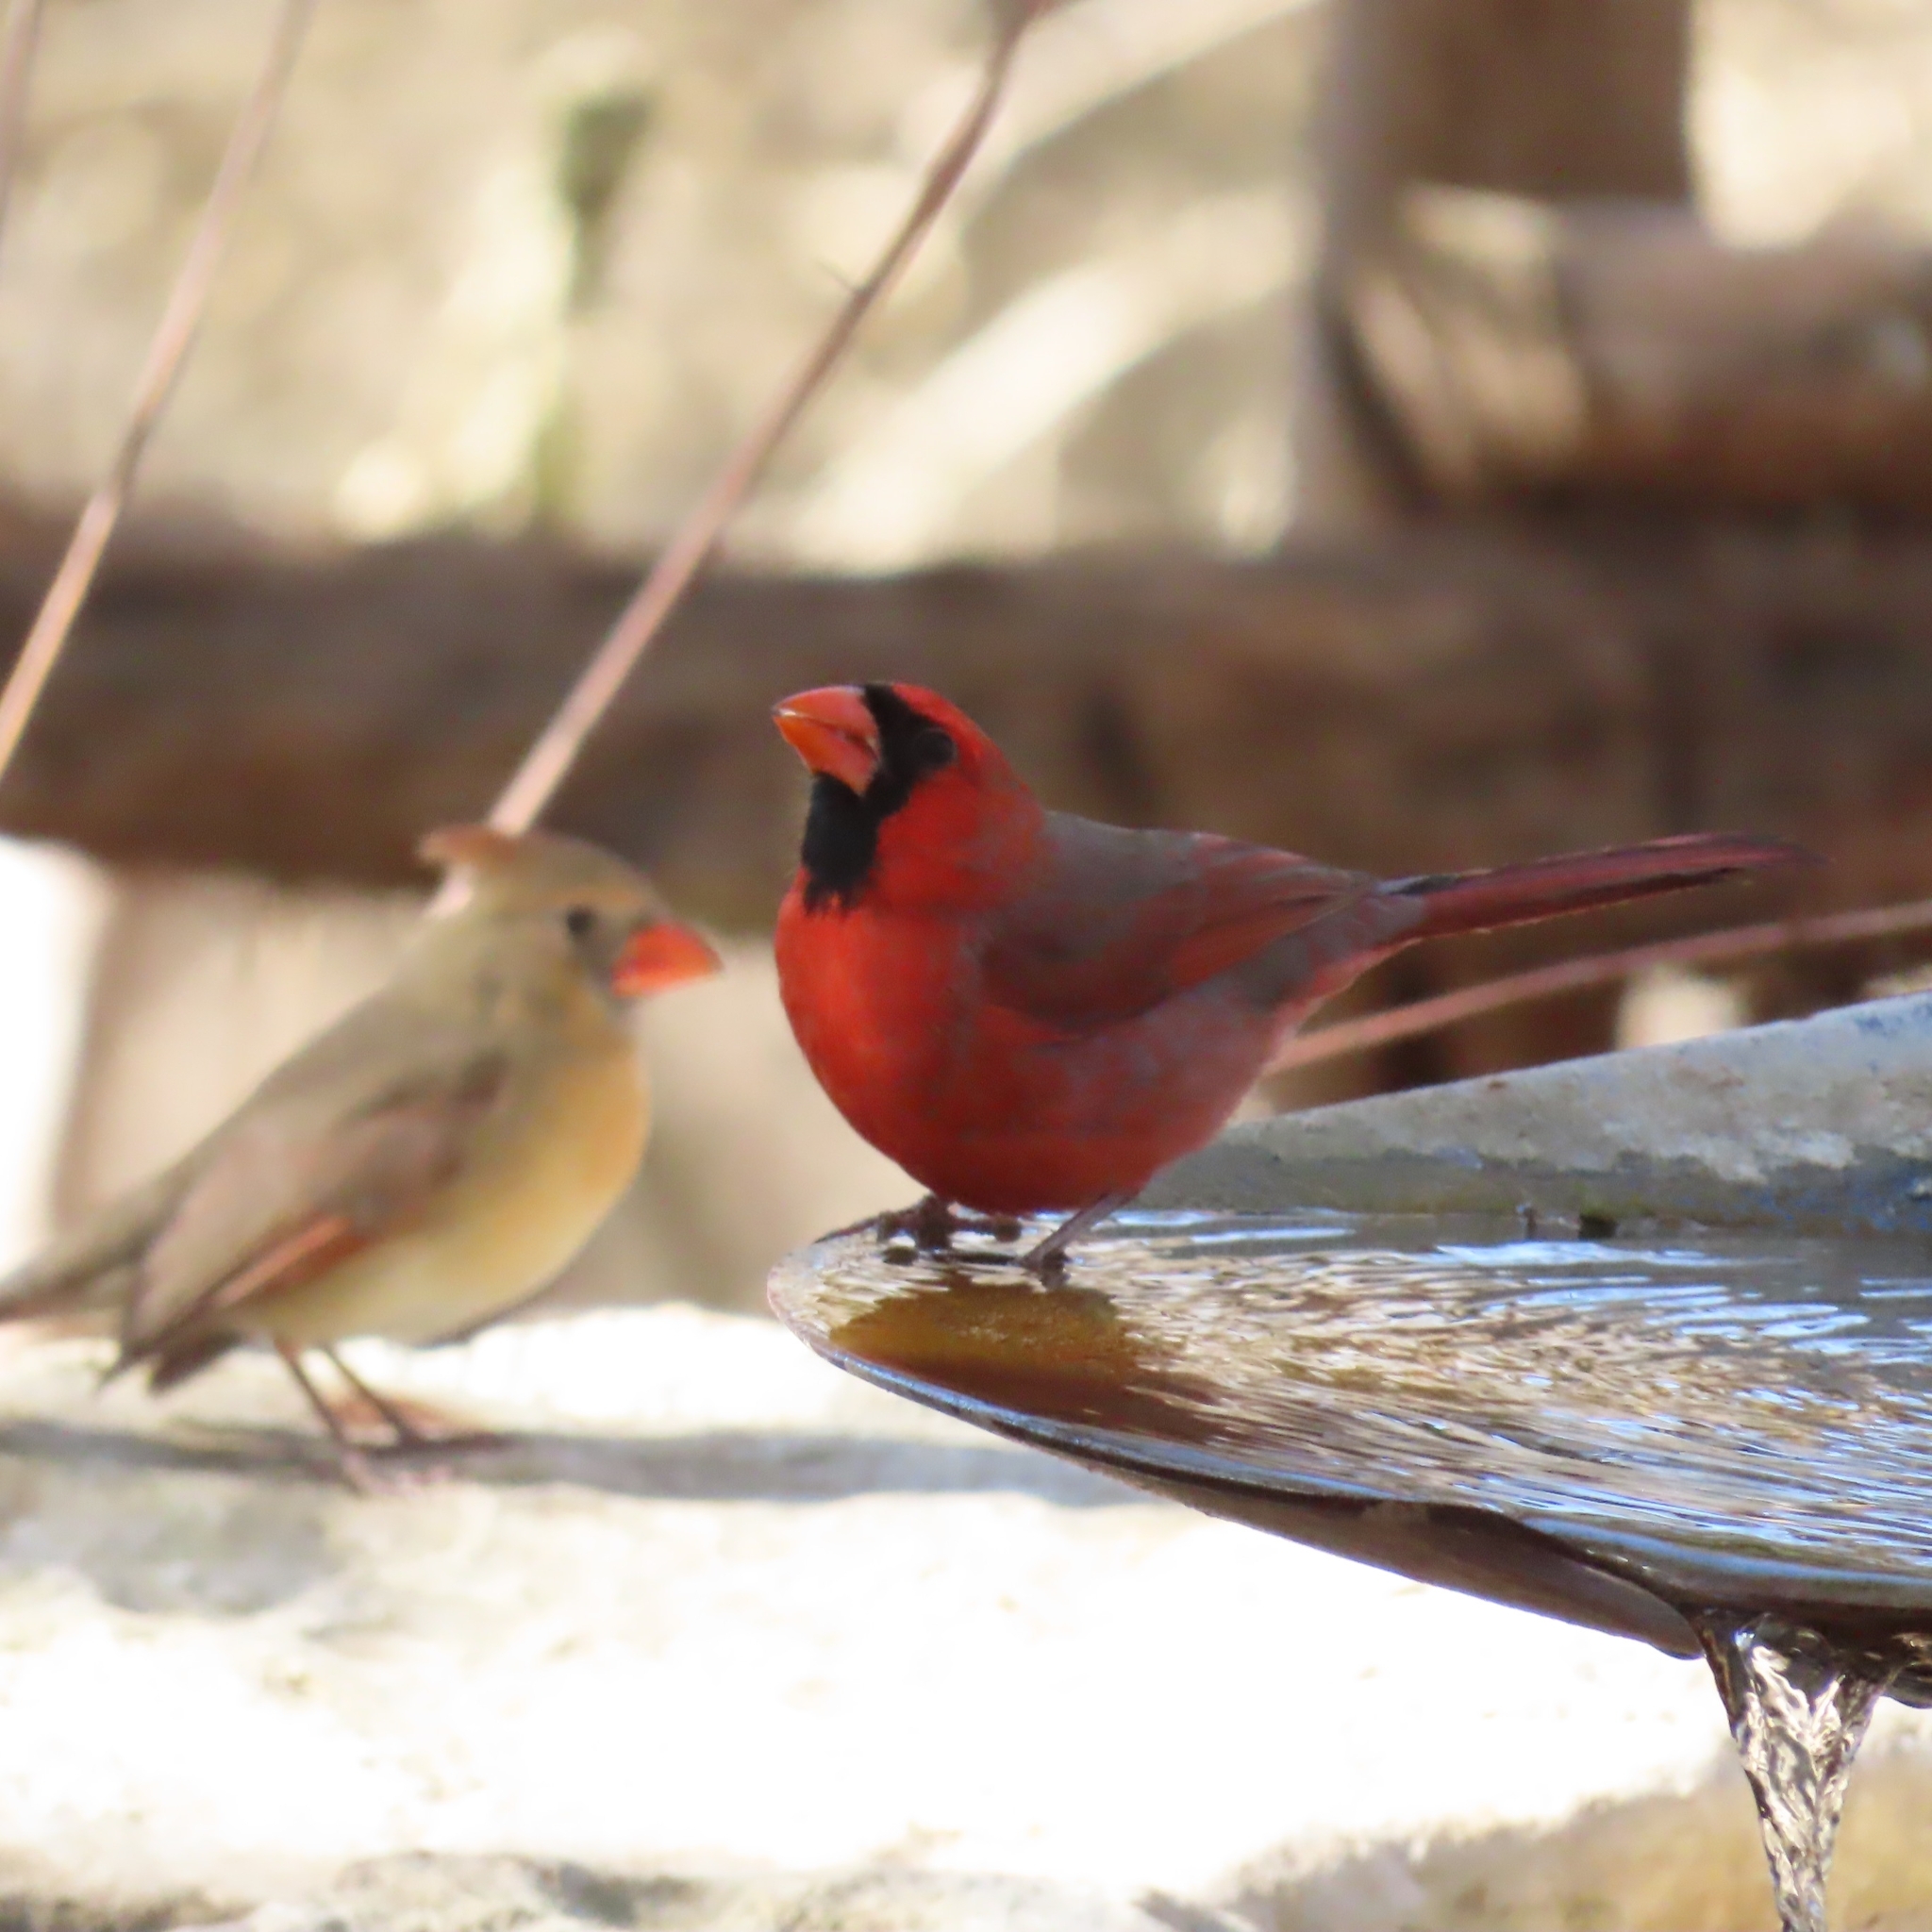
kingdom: Animalia
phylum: Chordata
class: Aves
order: Passeriformes
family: Cardinalidae
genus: Cardinalis
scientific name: Cardinalis cardinalis
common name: Northern cardinal
